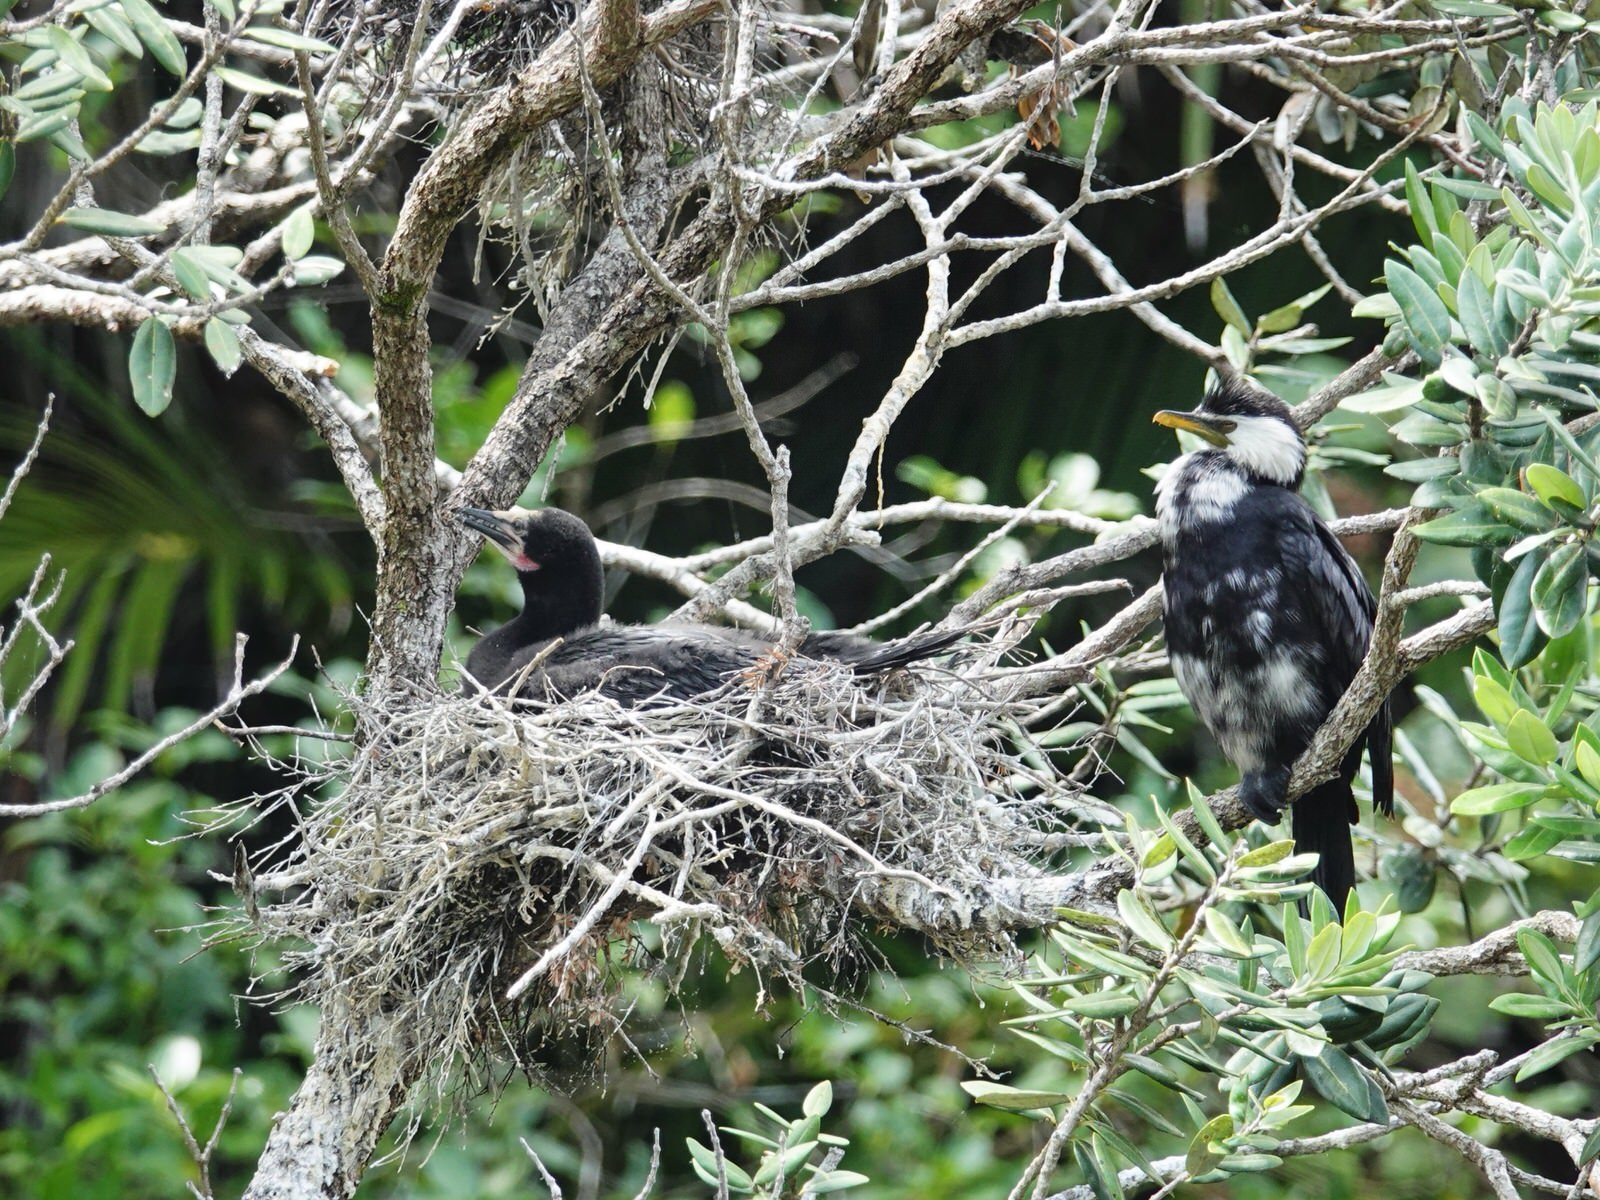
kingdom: Animalia
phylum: Chordata
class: Aves
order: Suliformes
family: Phalacrocoracidae
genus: Microcarbo
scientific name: Microcarbo melanoleucos
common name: Little pied cormorant
